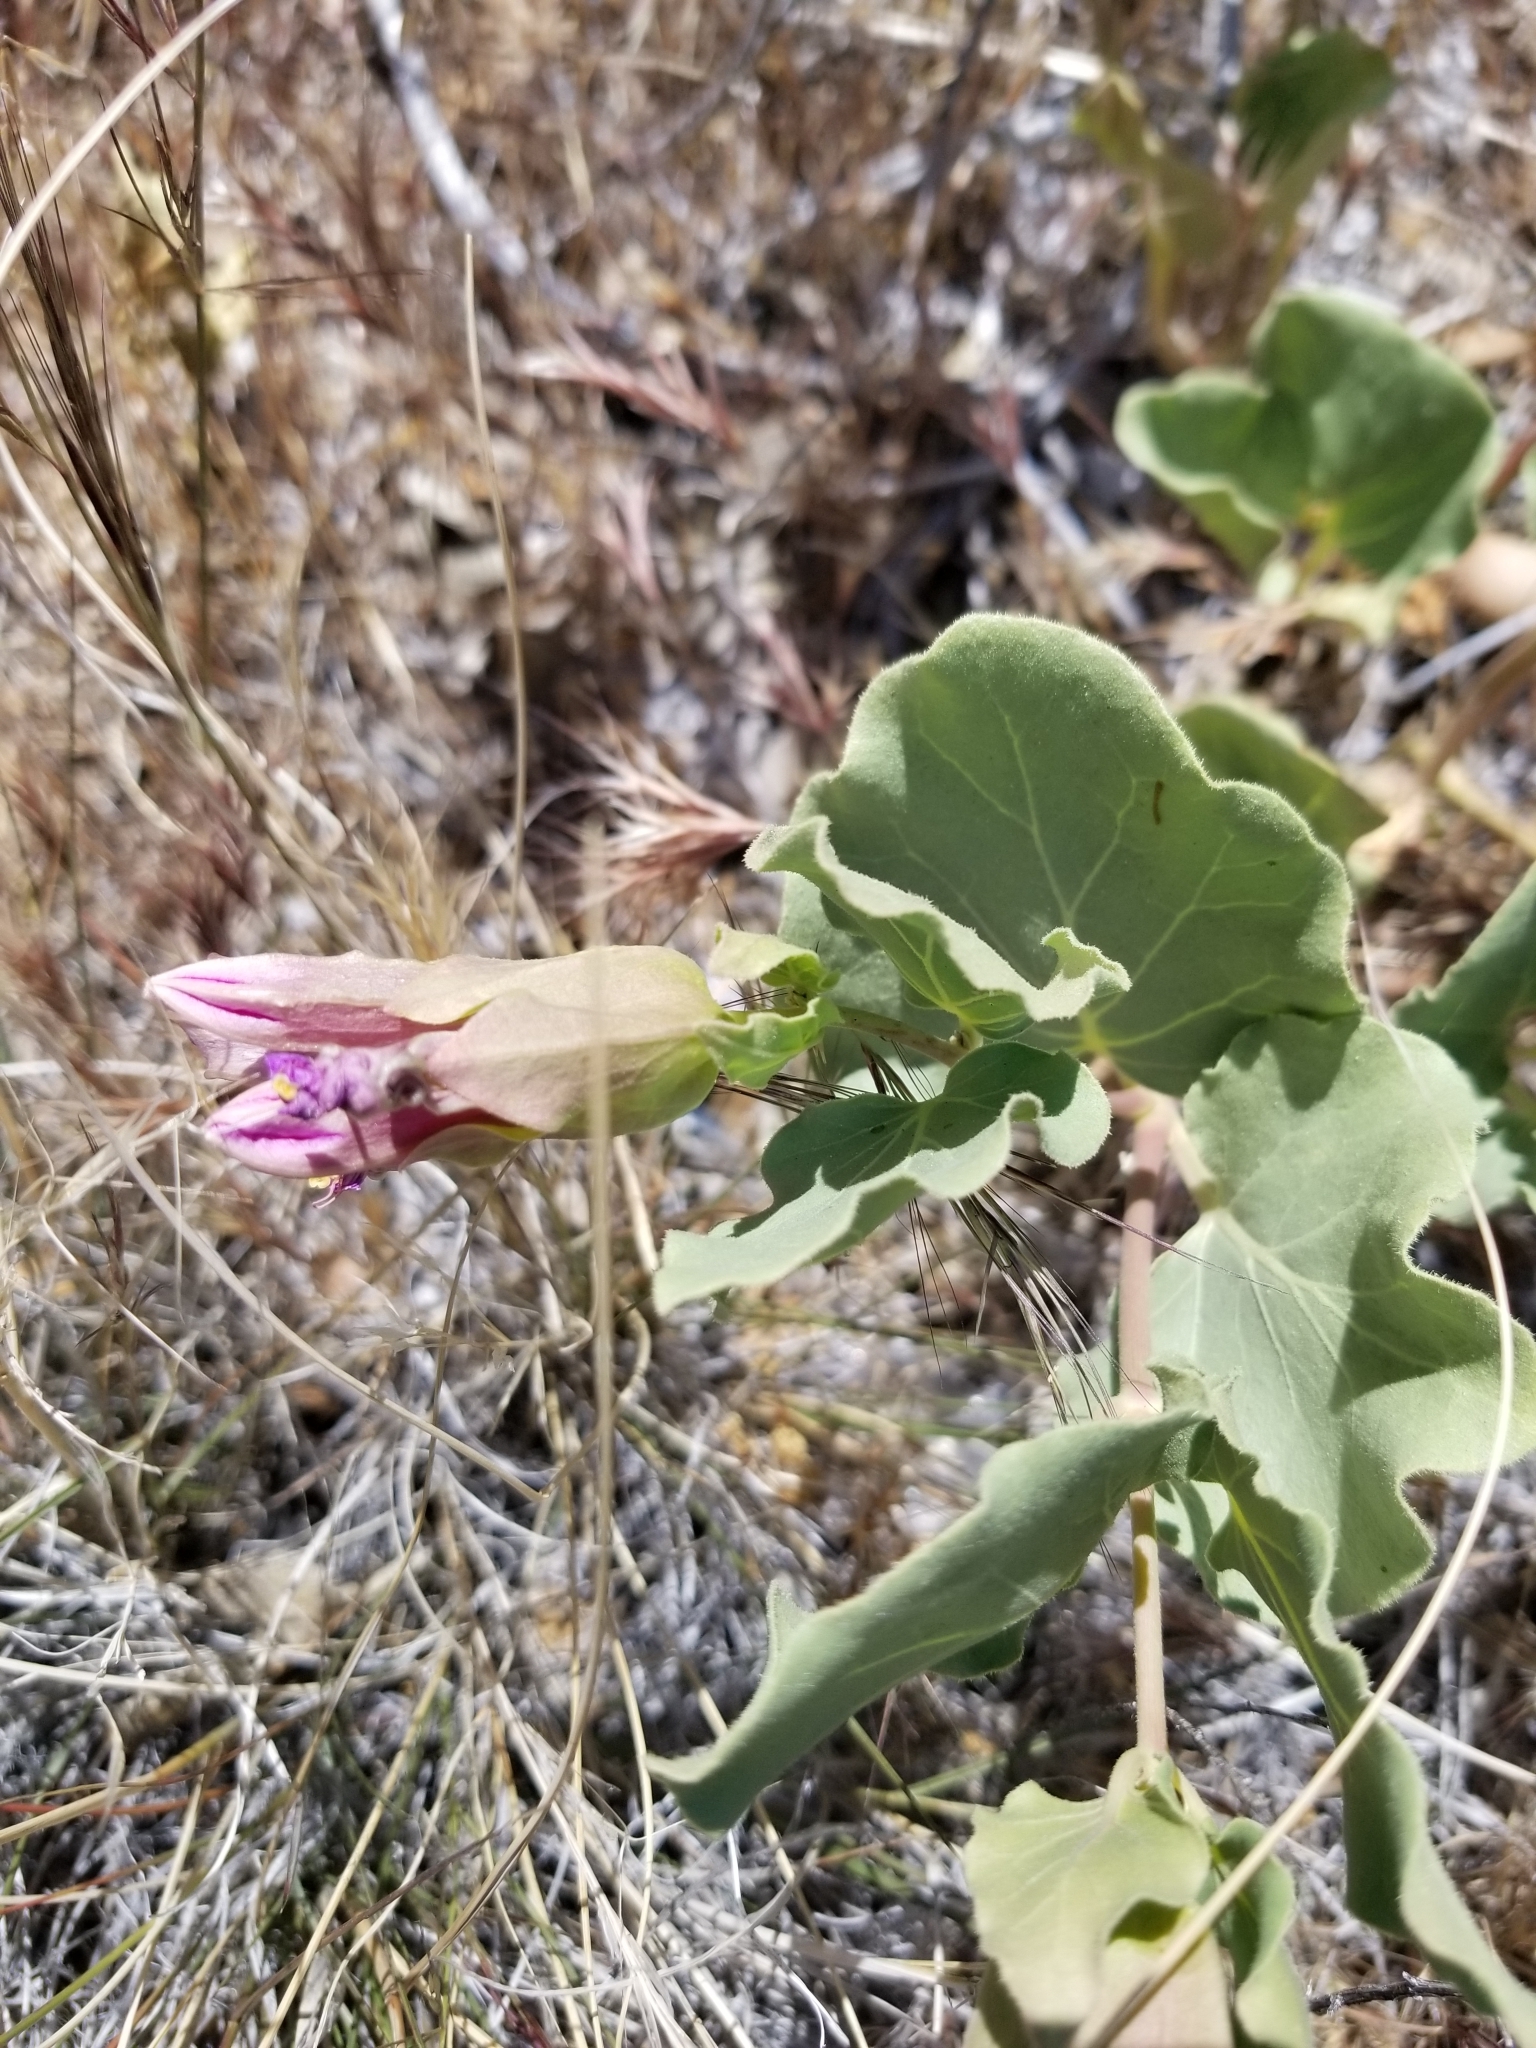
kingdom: Plantae
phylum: Tracheophyta
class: Magnoliopsida
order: Caryophyllales
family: Nyctaginaceae
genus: Mirabilis
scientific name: Mirabilis multiflora
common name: Froebel's four-o'clock
